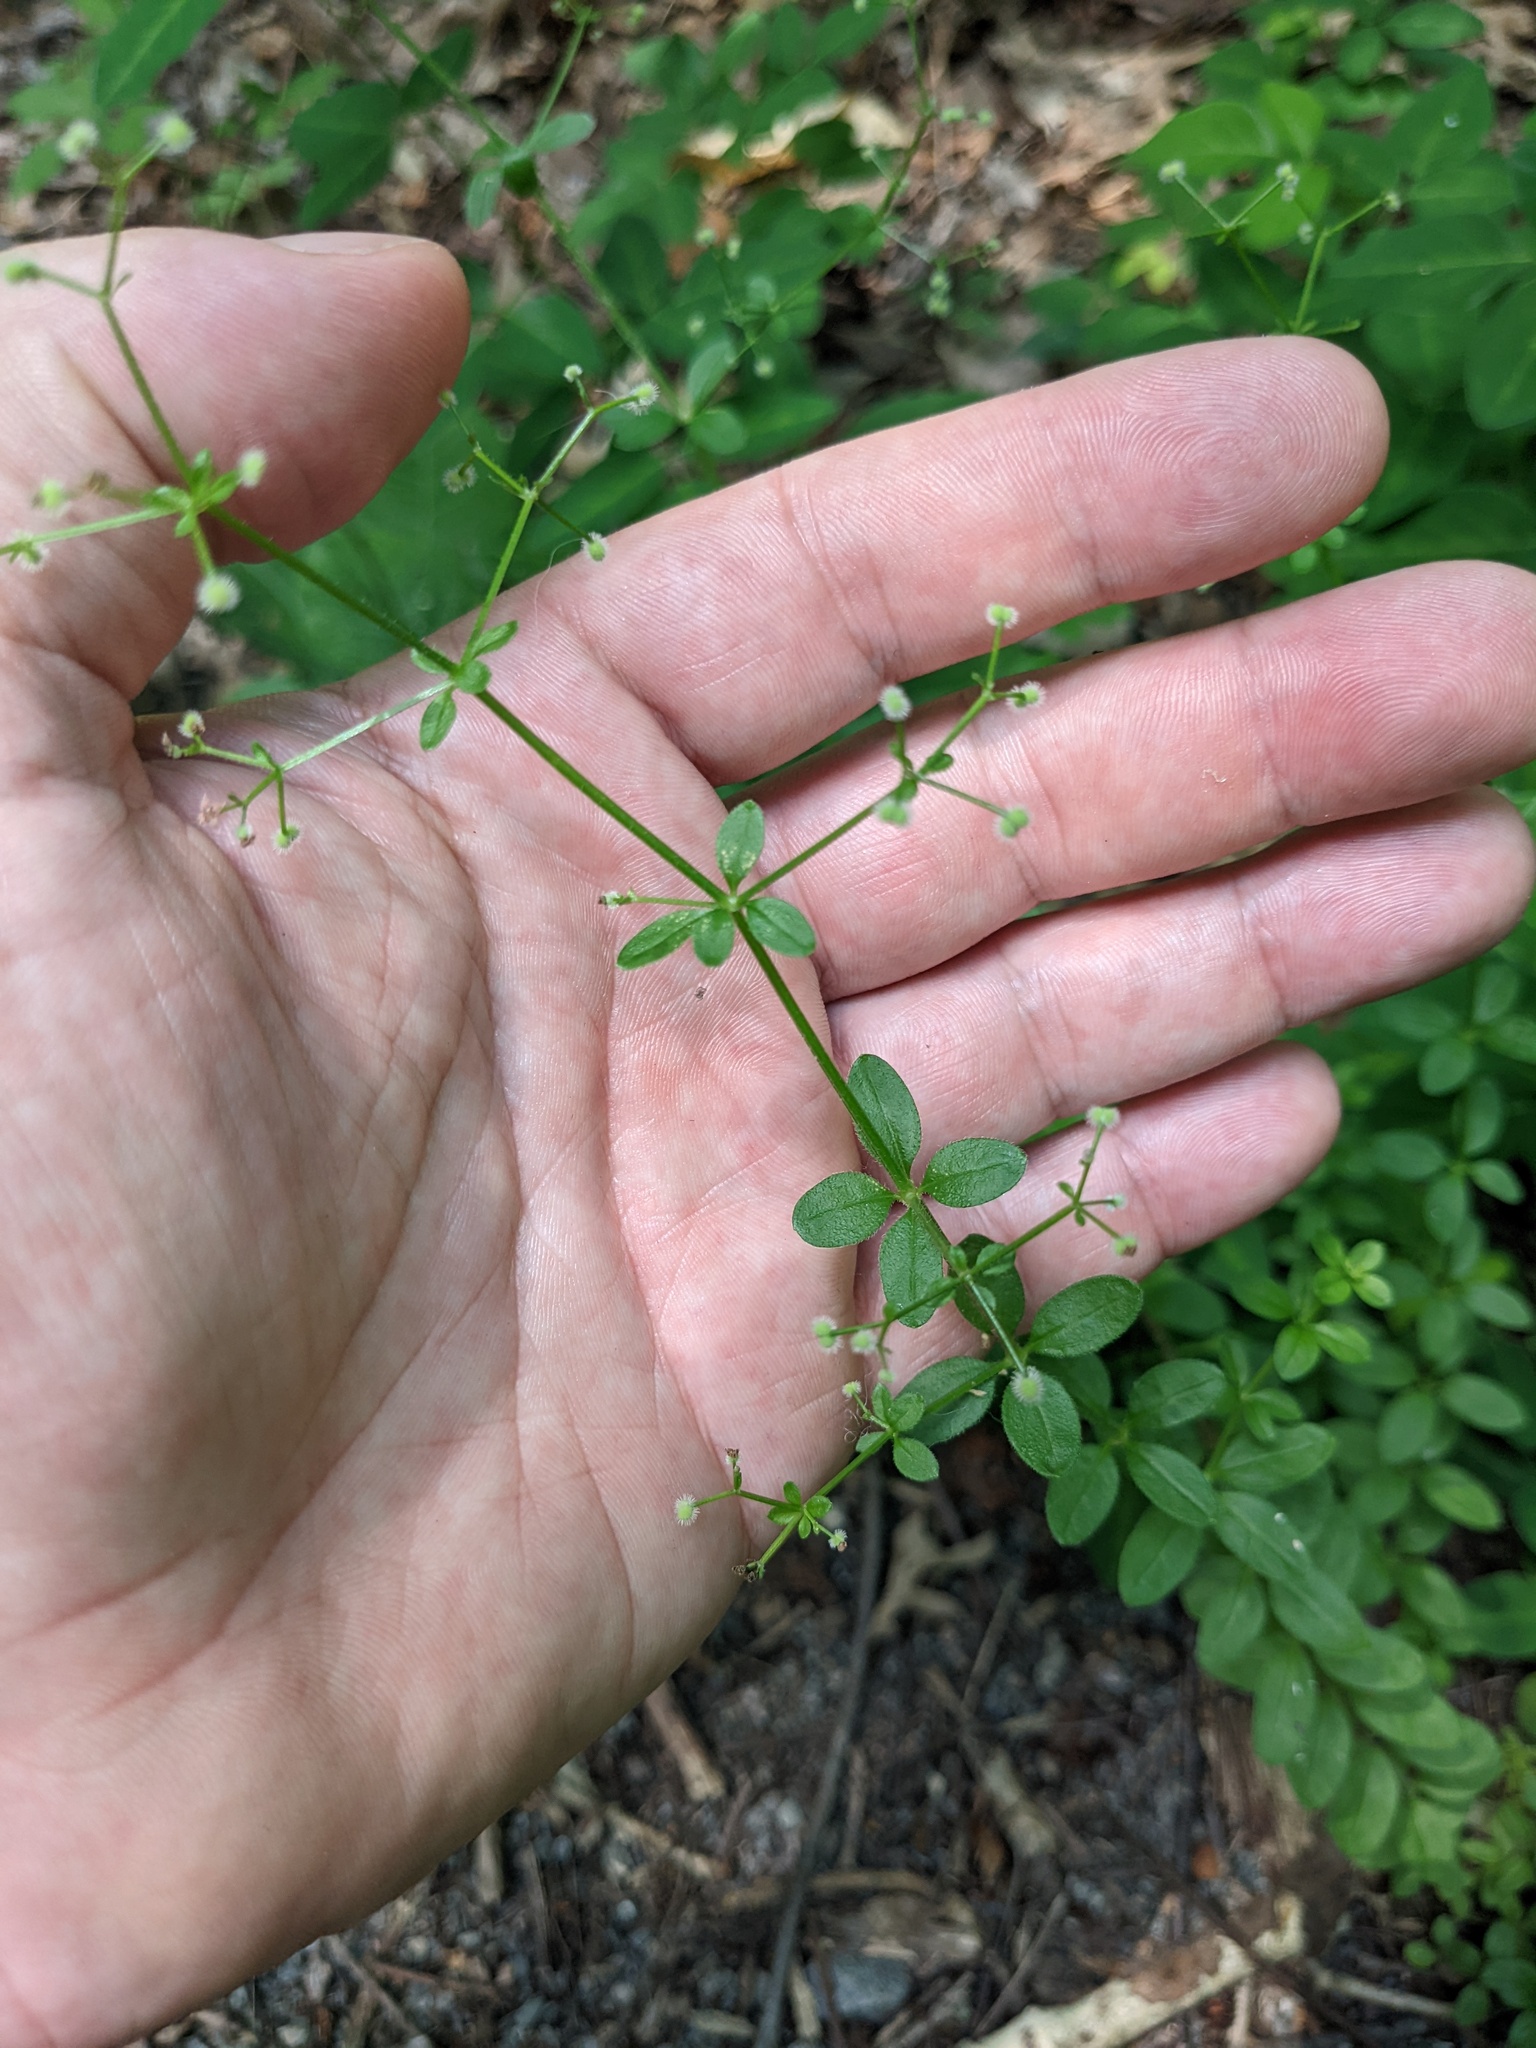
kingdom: Plantae
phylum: Tracheophyta
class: Magnoliopsida
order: Gentianales
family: Rubiaceae
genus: Galium
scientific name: Galium pilosum
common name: Hairy bedstraw
